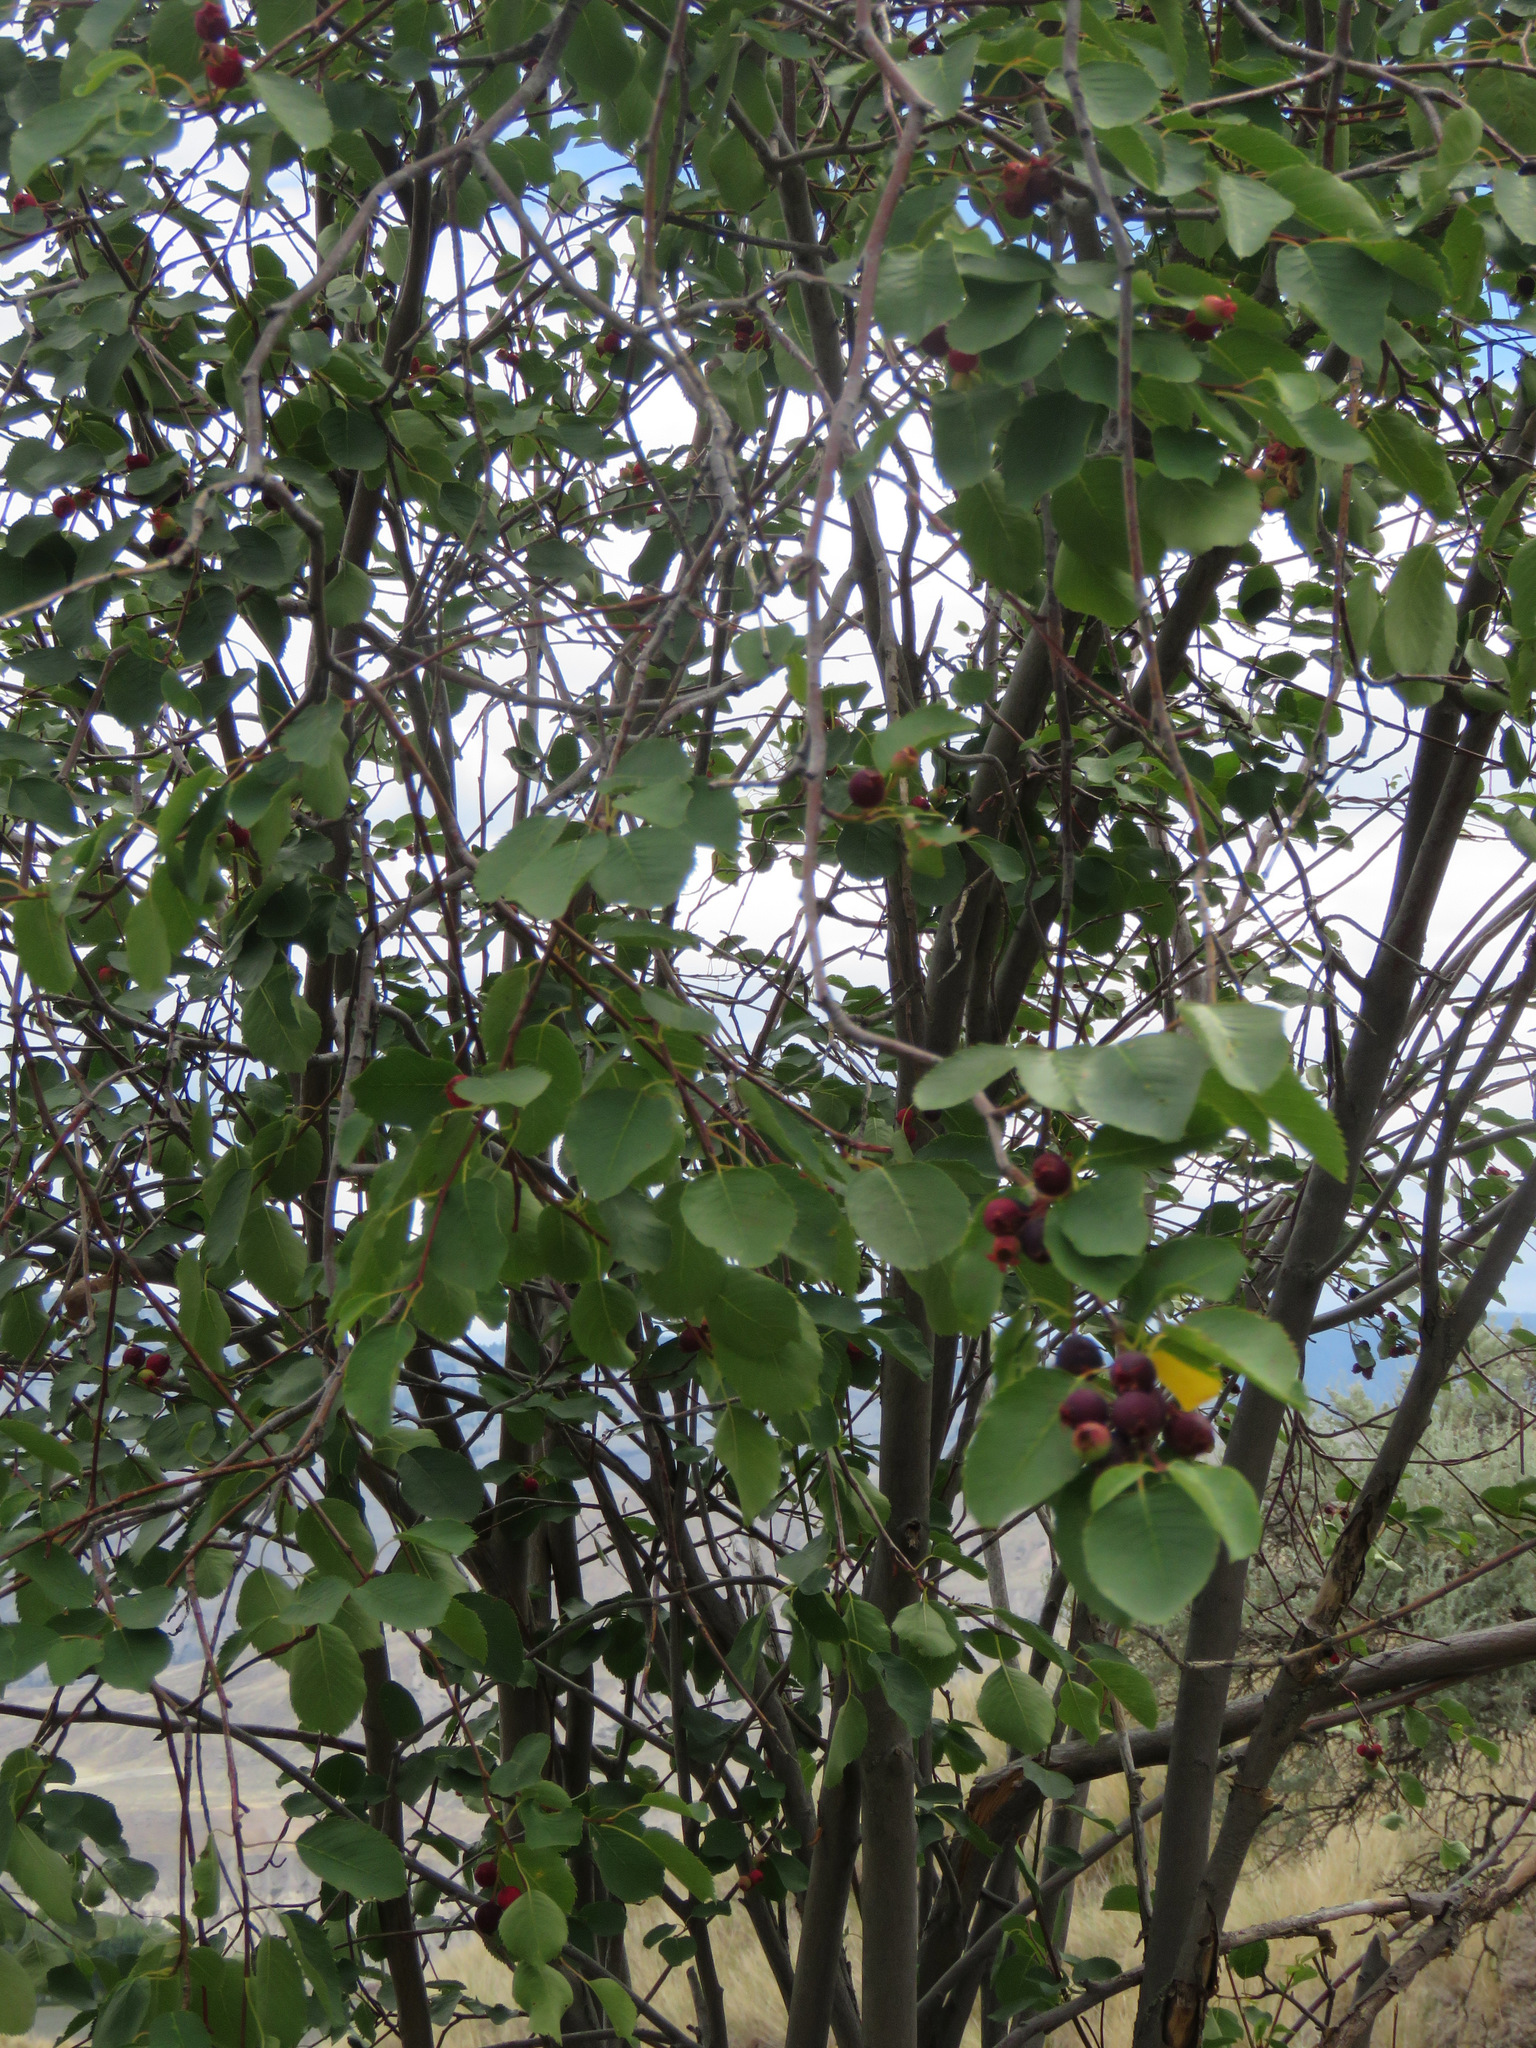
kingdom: Plantae
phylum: Tracheophyta
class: Magnoliopsida
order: Rosales
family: Rosaceae
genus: Amelanchier
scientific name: Amelanchier alnifolia
